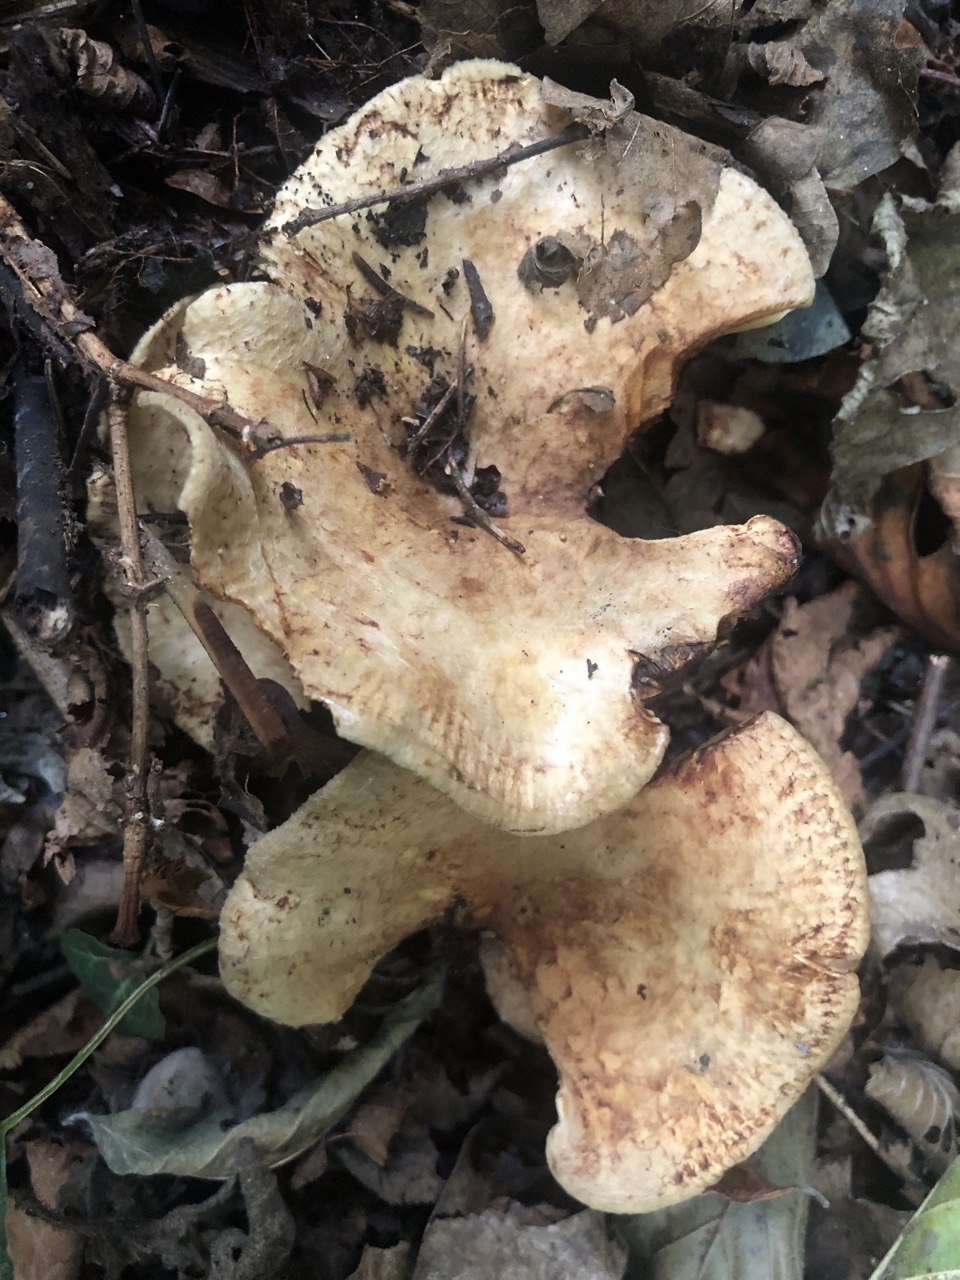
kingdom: Fungi
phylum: Basidiomycota
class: Agaricomycetes
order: Boletales
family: Paxillaceae
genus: Paxillus
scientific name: Paxillus involutus
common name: Brown roll rim
